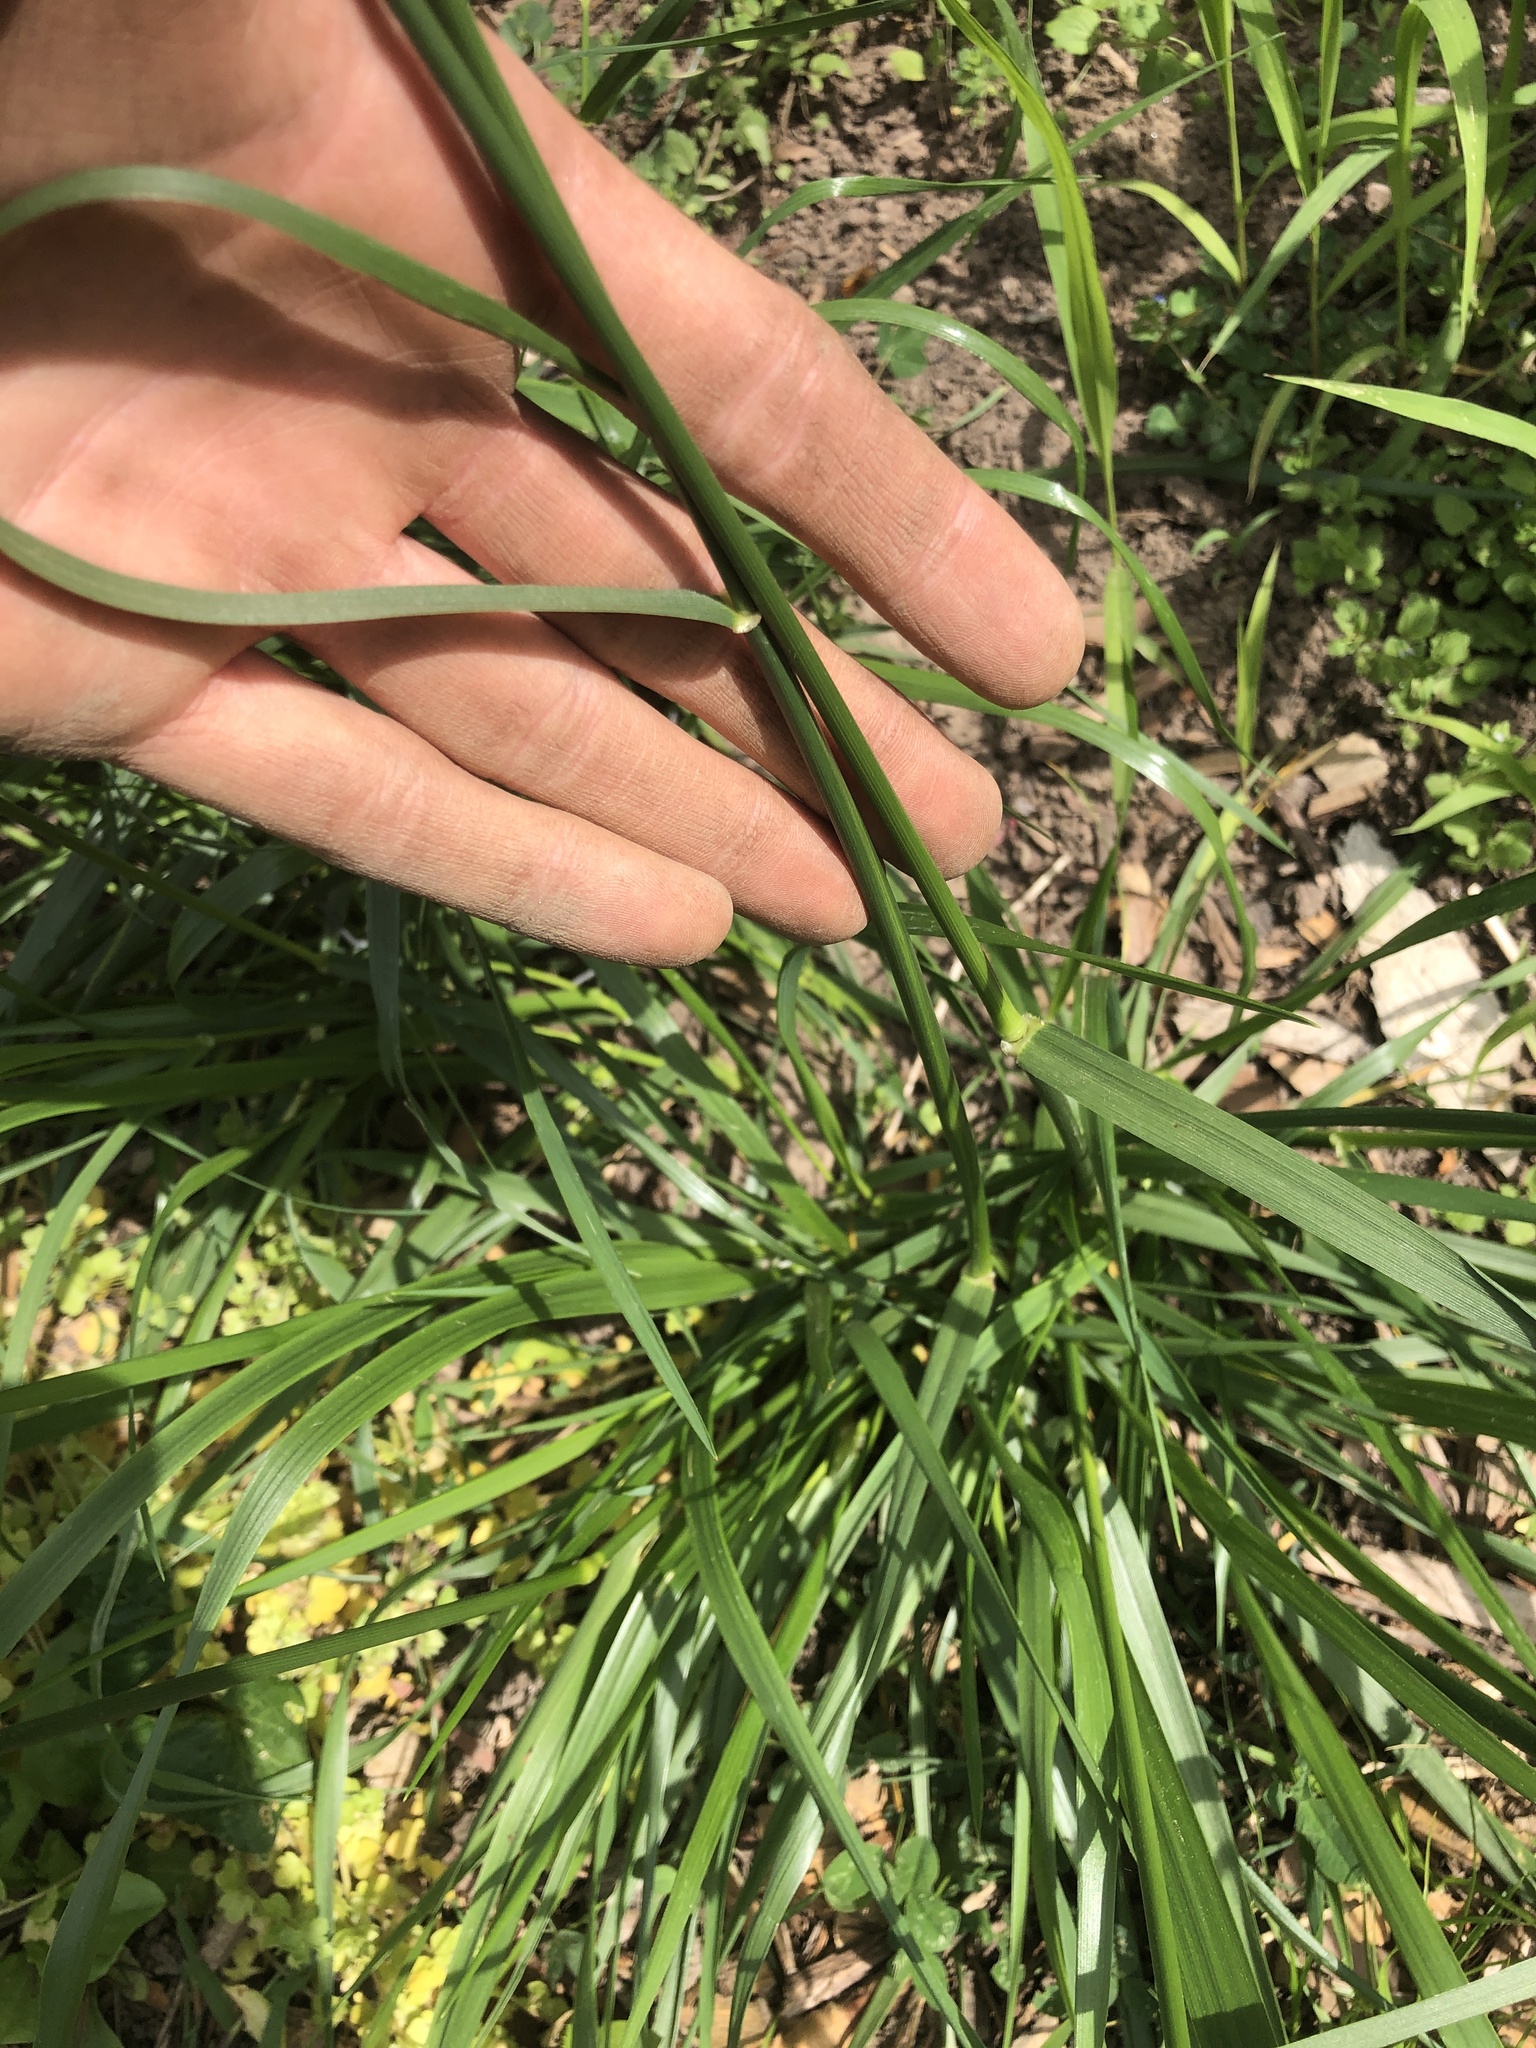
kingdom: Plantae
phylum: Tracheophyta
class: Liliopsida
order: Poales
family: Poaceae
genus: Lolium
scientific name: Lolium arundinaceum
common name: Reed fescue
